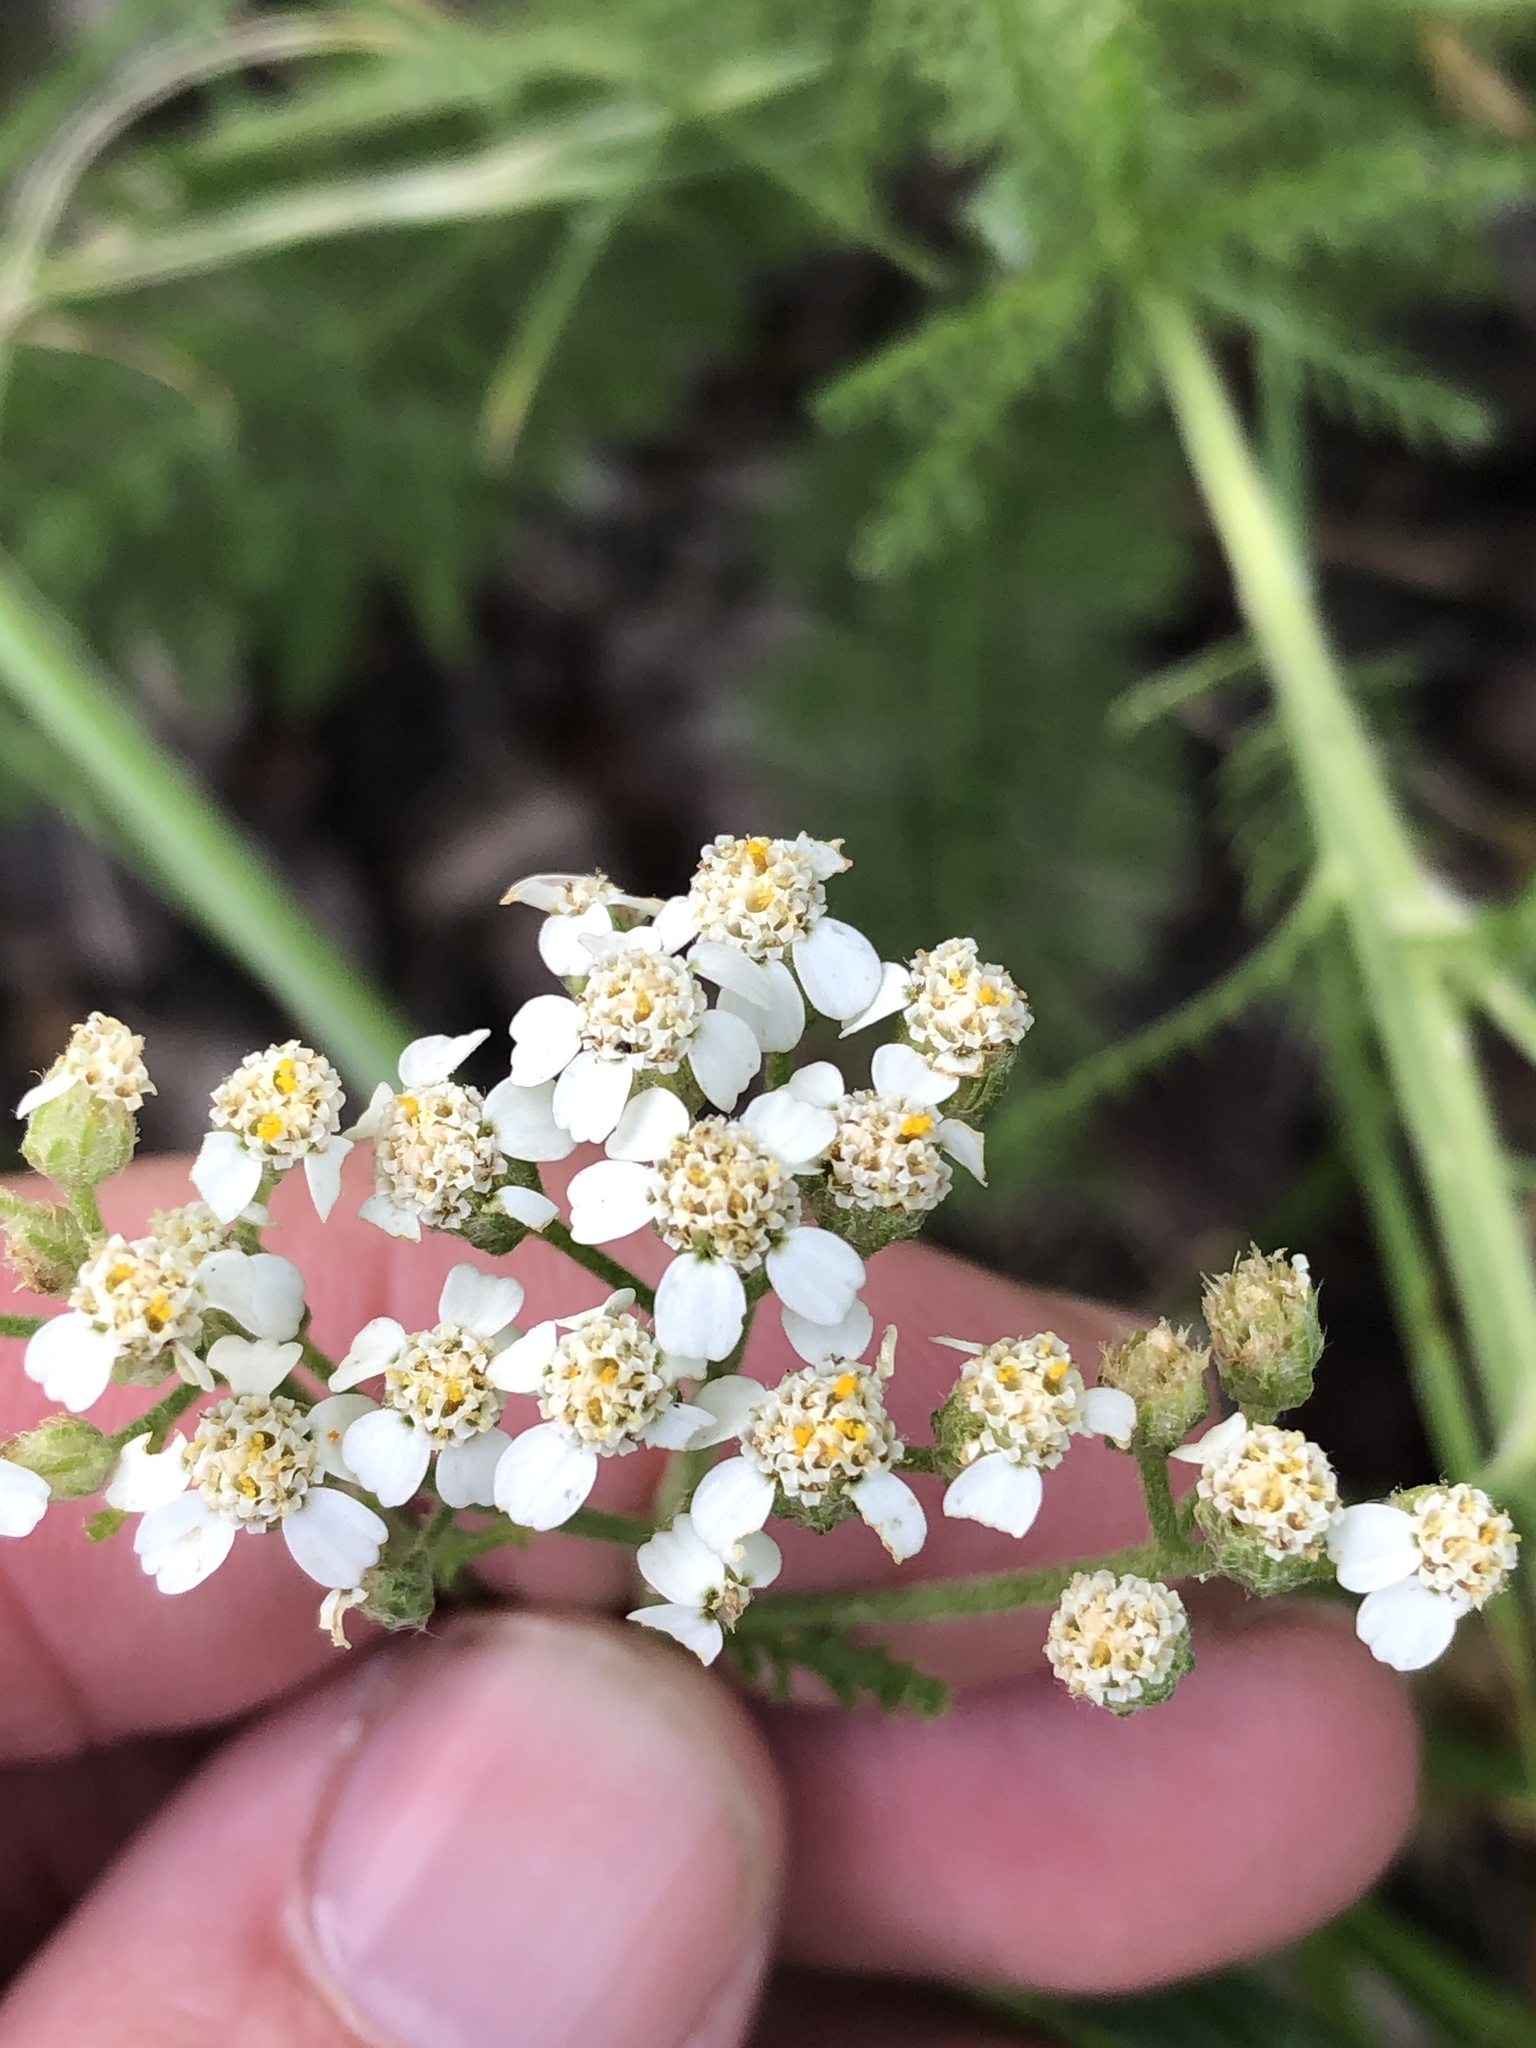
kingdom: Plantae
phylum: Tracheophyta
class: Magnoliopsida
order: Asterales
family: Asteraceae
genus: Achillea
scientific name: Achillea millefolium
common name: Yarrow
